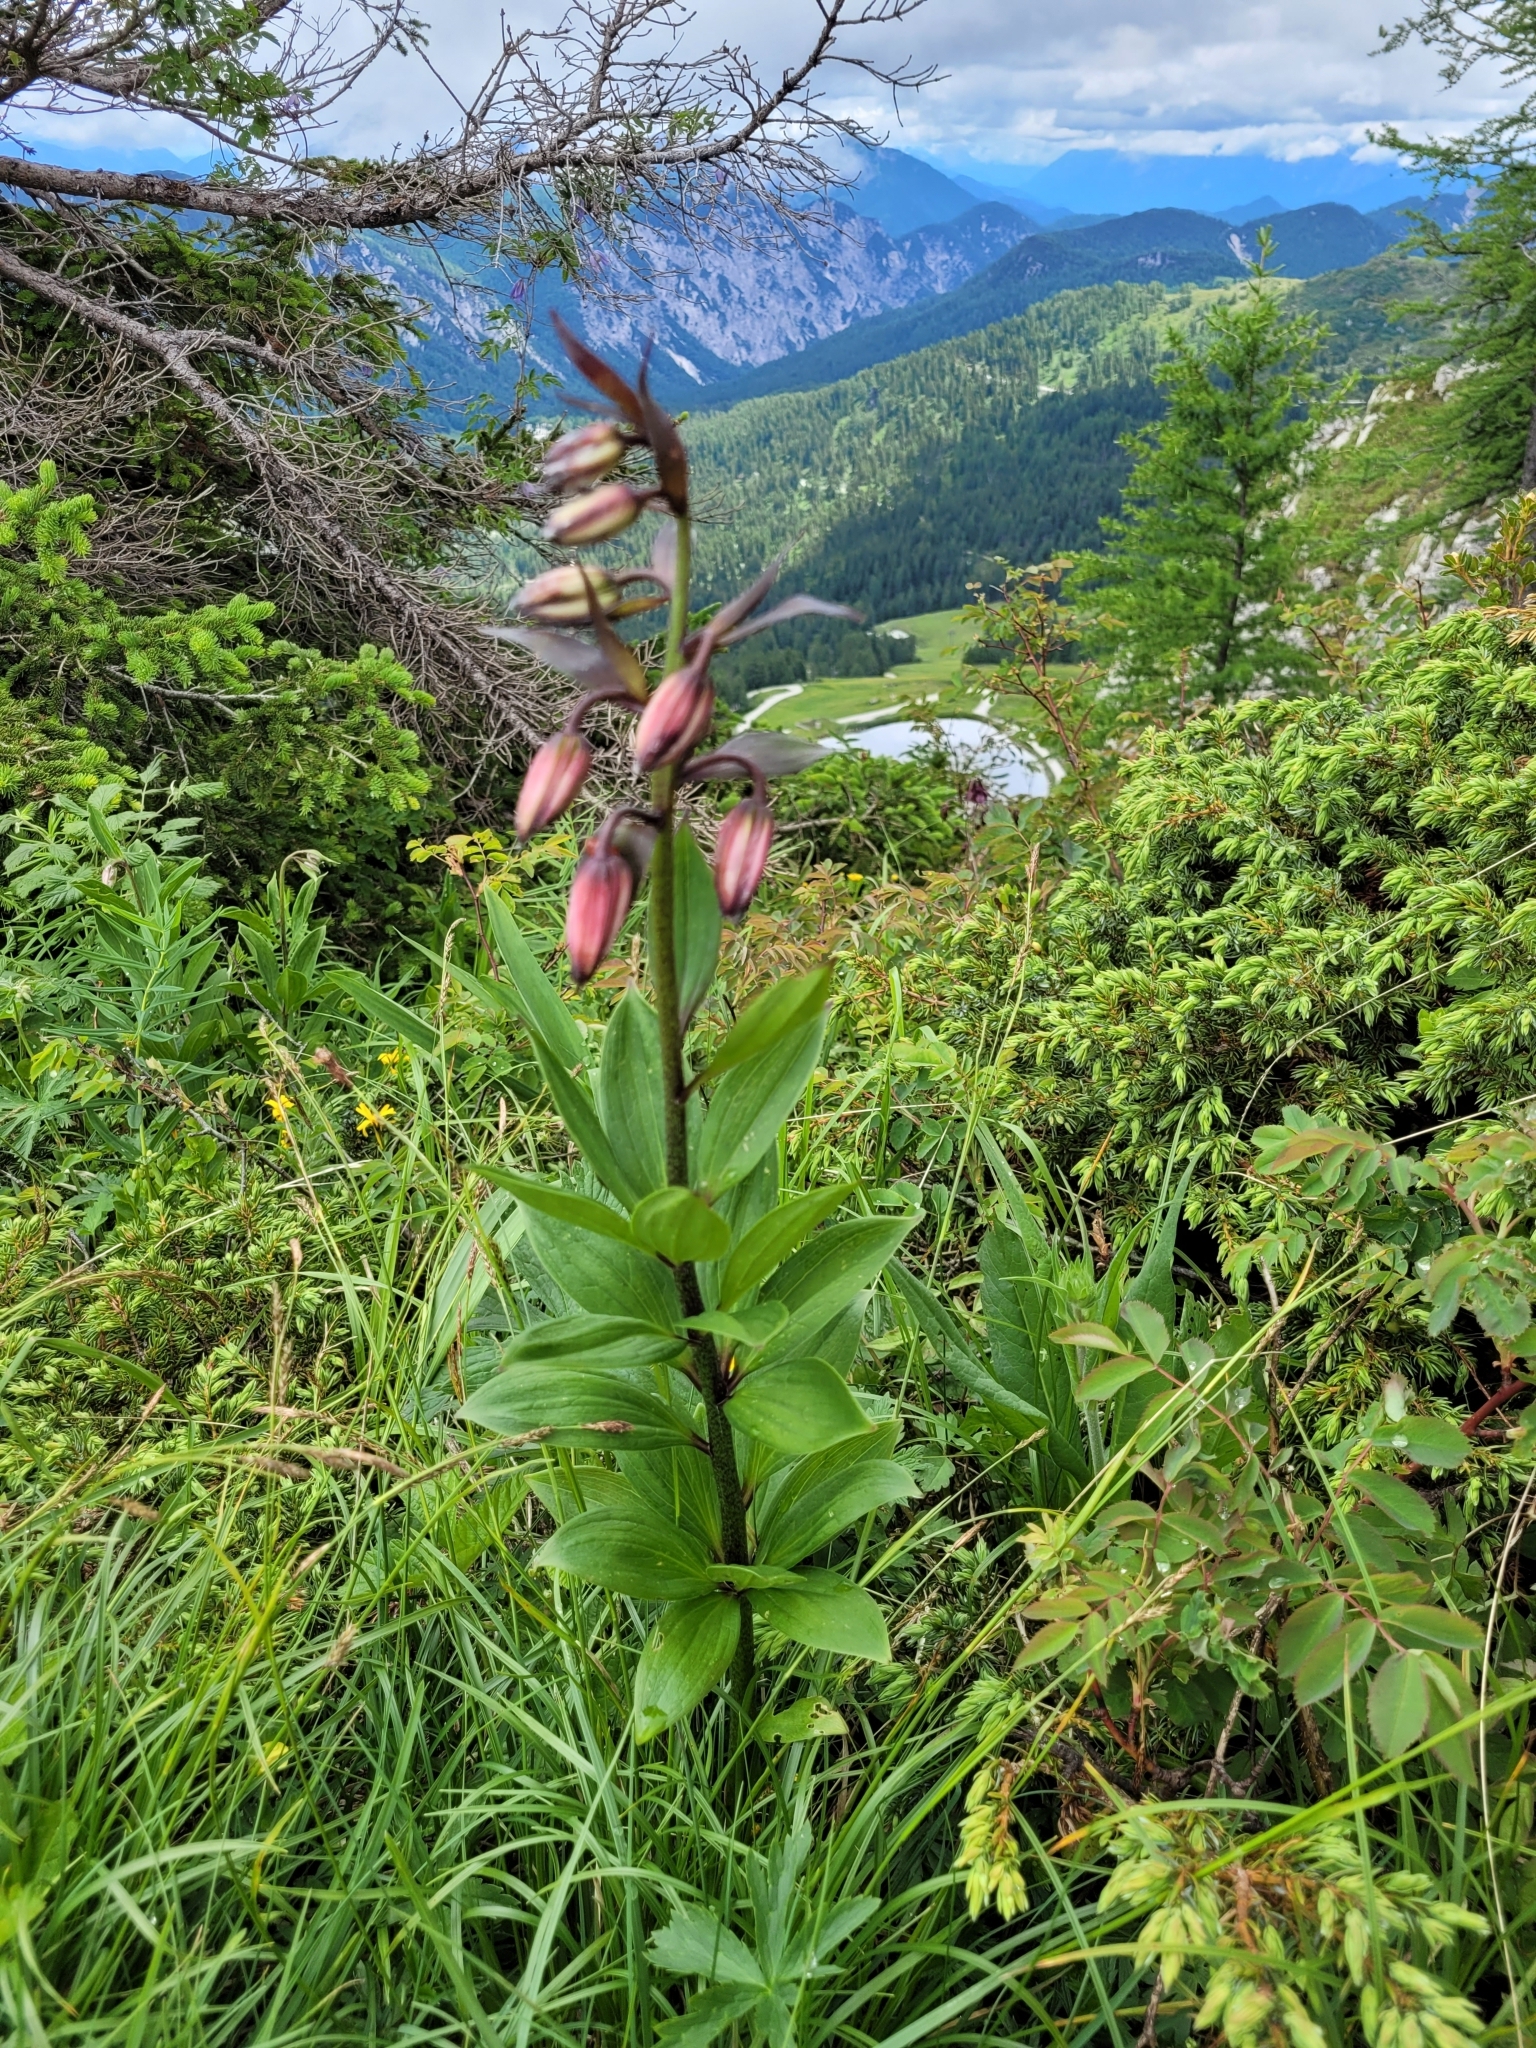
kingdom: Plantae
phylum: Tracheophyta
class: Liliopsida
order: Liliales
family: Liliaceae
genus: Lilium
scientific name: Lilium martagon
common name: Martagon lily
